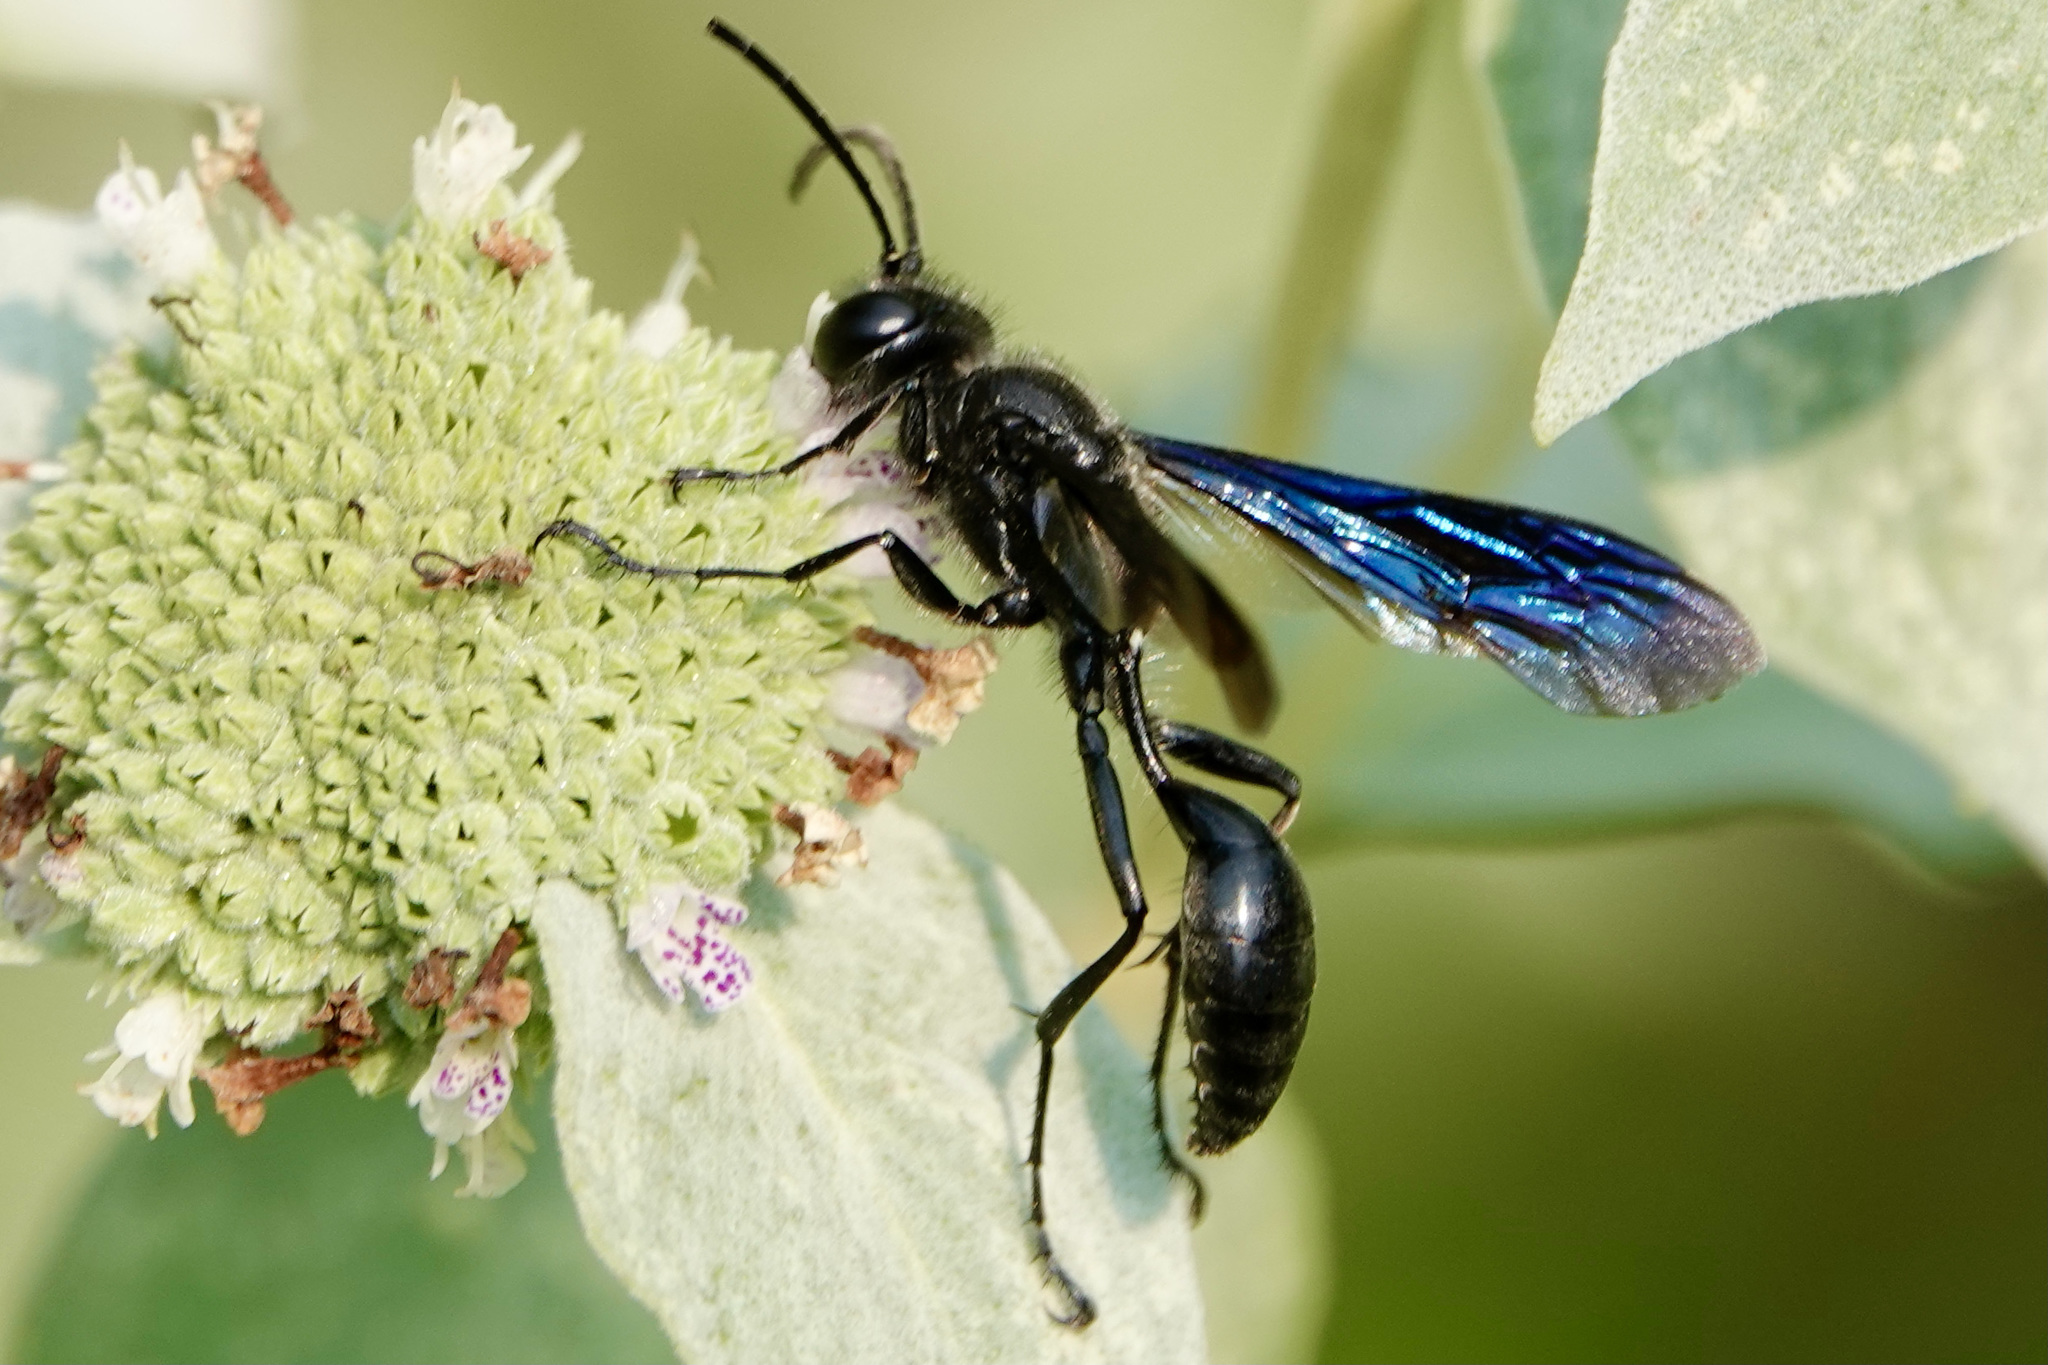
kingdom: Animalia
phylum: Arthropoda
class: Insecta
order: Hymenoptera
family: Sphecidae
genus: Isodontia
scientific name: Isodontia philadelphica
